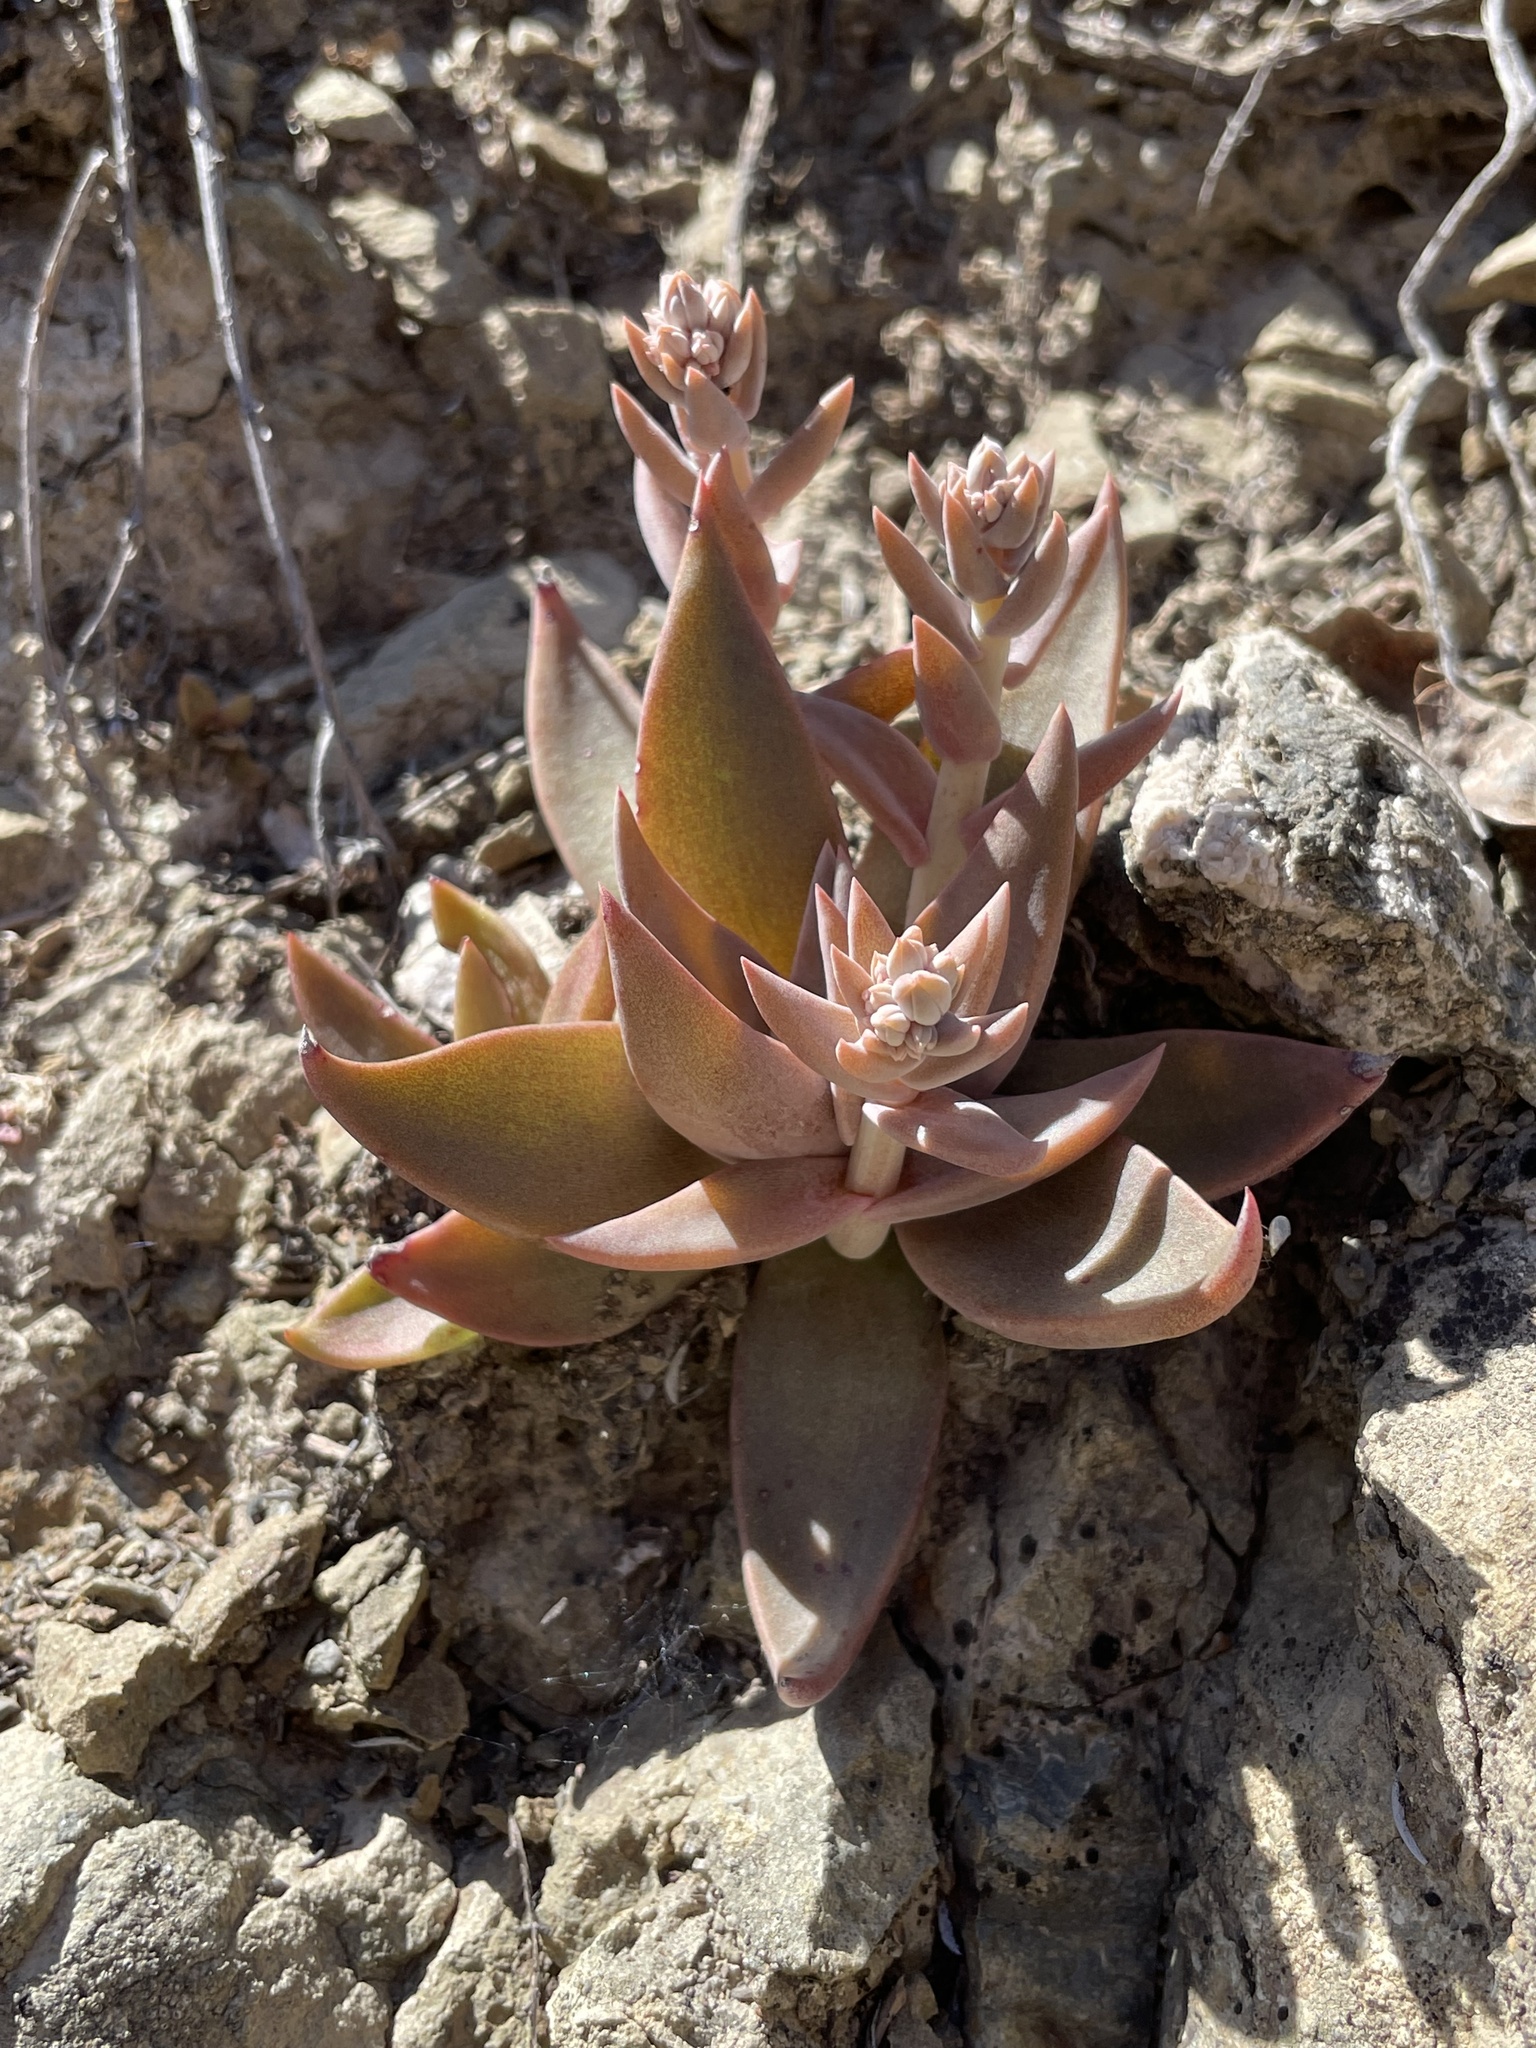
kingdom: Plantae
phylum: Tracheophyta
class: Magnoliopsida
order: Saxifragales
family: Crassulaceae
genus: Dudleya
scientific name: Dudleya cymosa
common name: Canyon dudleya
